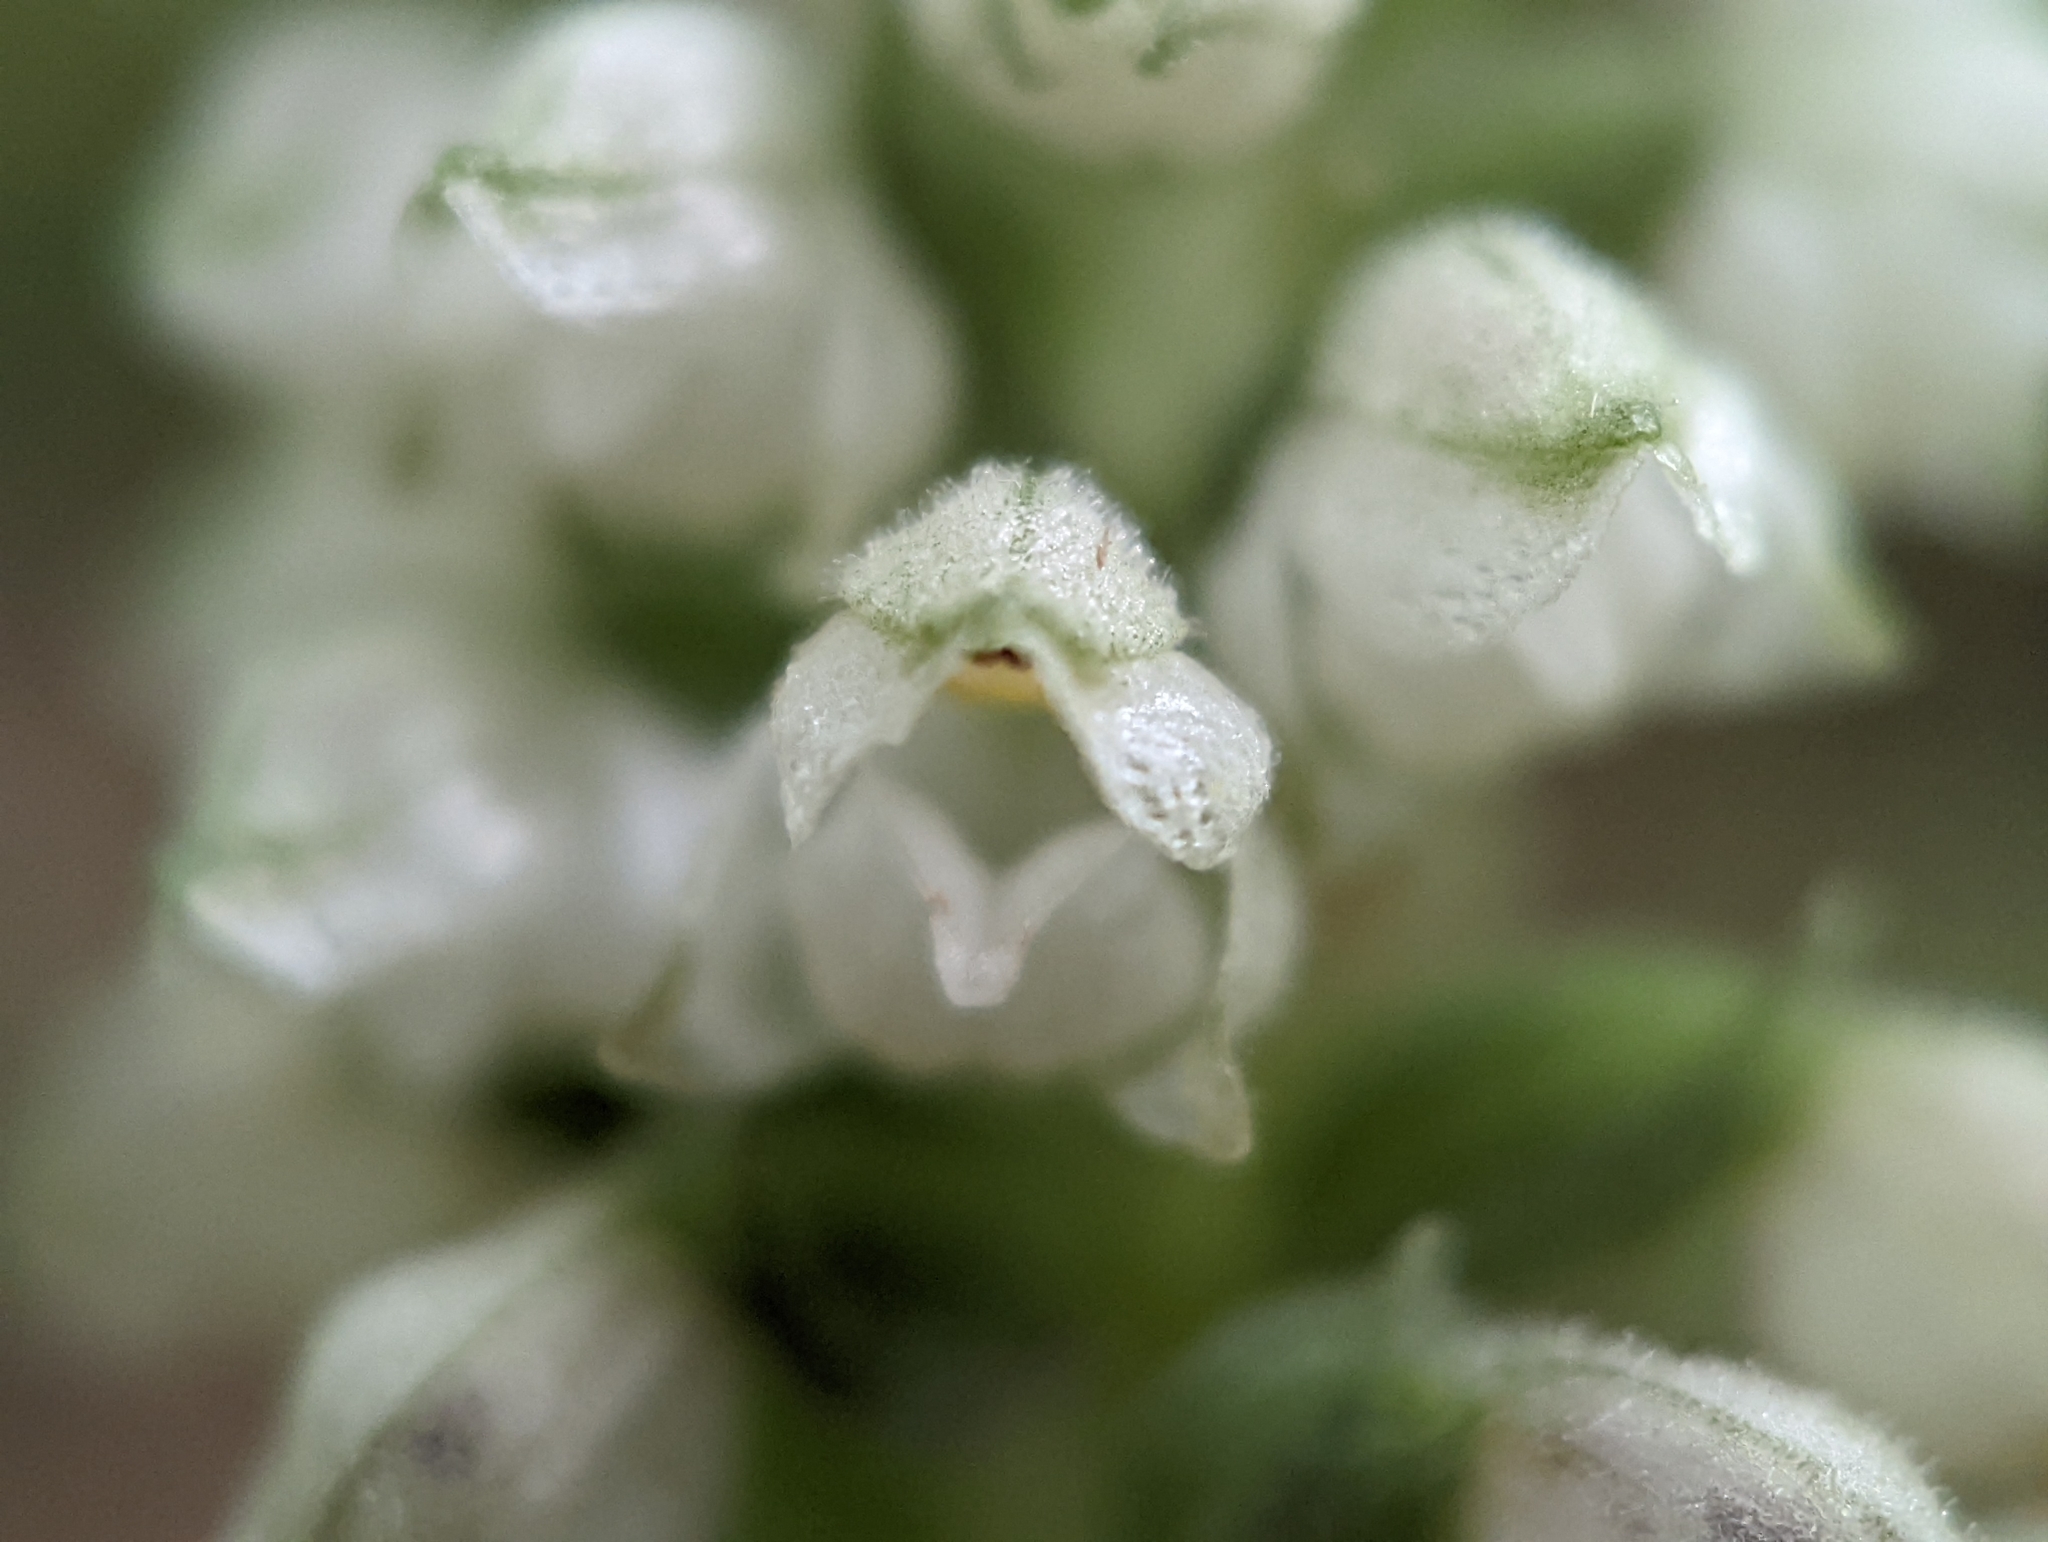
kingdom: Plantae
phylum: Tracheophyta
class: Liliopsida
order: Asparagales
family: Orchidaceae
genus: Goodyera
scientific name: Goodyera pubescens
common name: Downy rattlesnake-plantain
